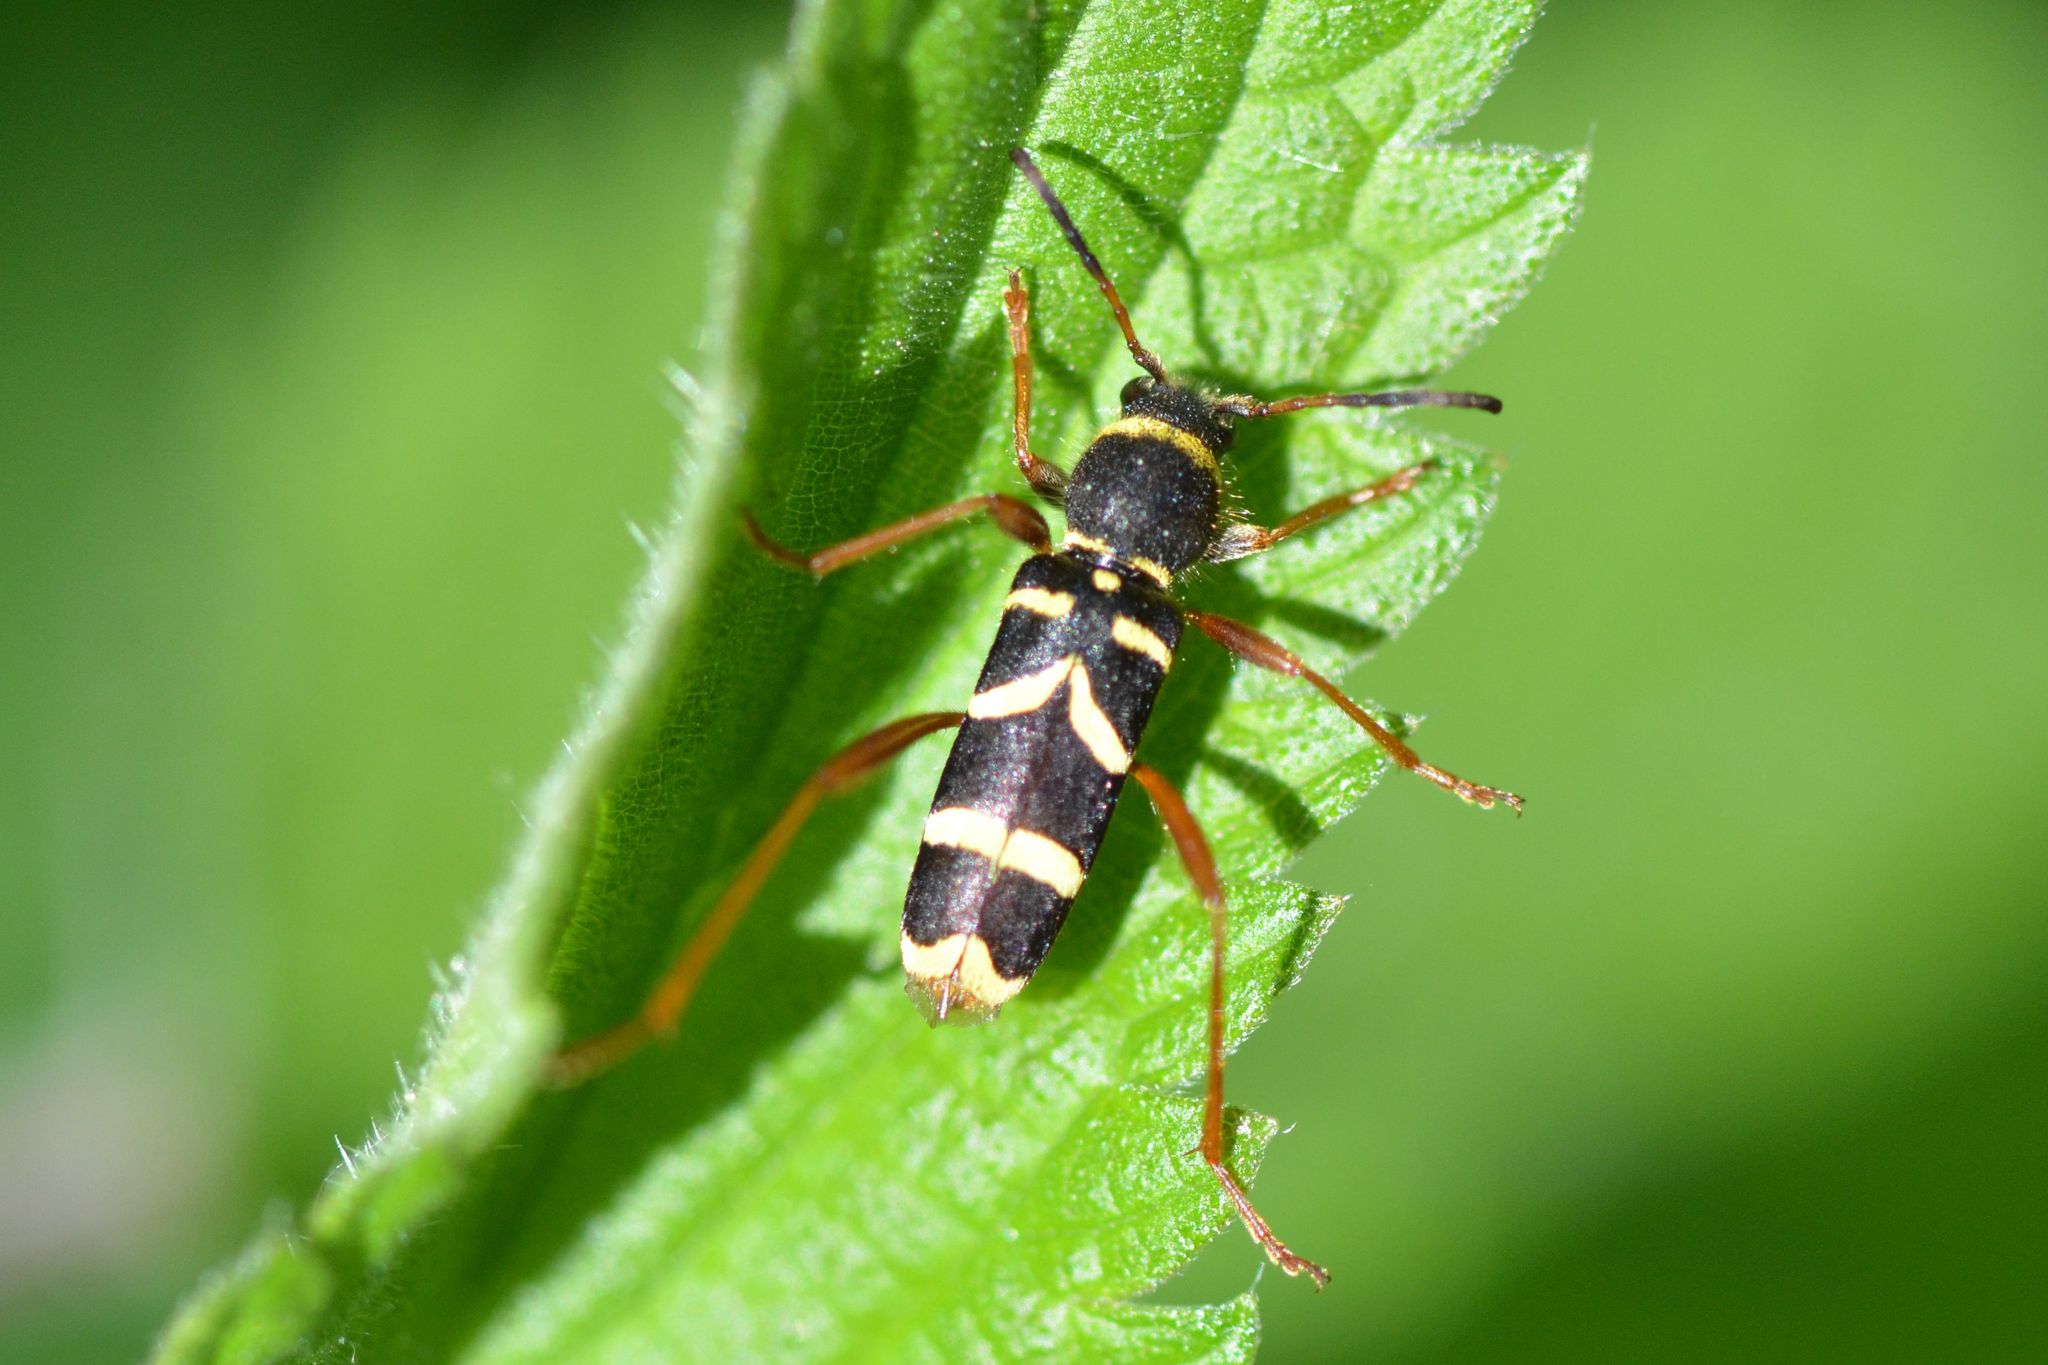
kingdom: Animalia
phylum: Arthropoda
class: Insecta
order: Coleoptera
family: Cerambycidae
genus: Clytus
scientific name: Clytus arietis
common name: Wasp beetle
